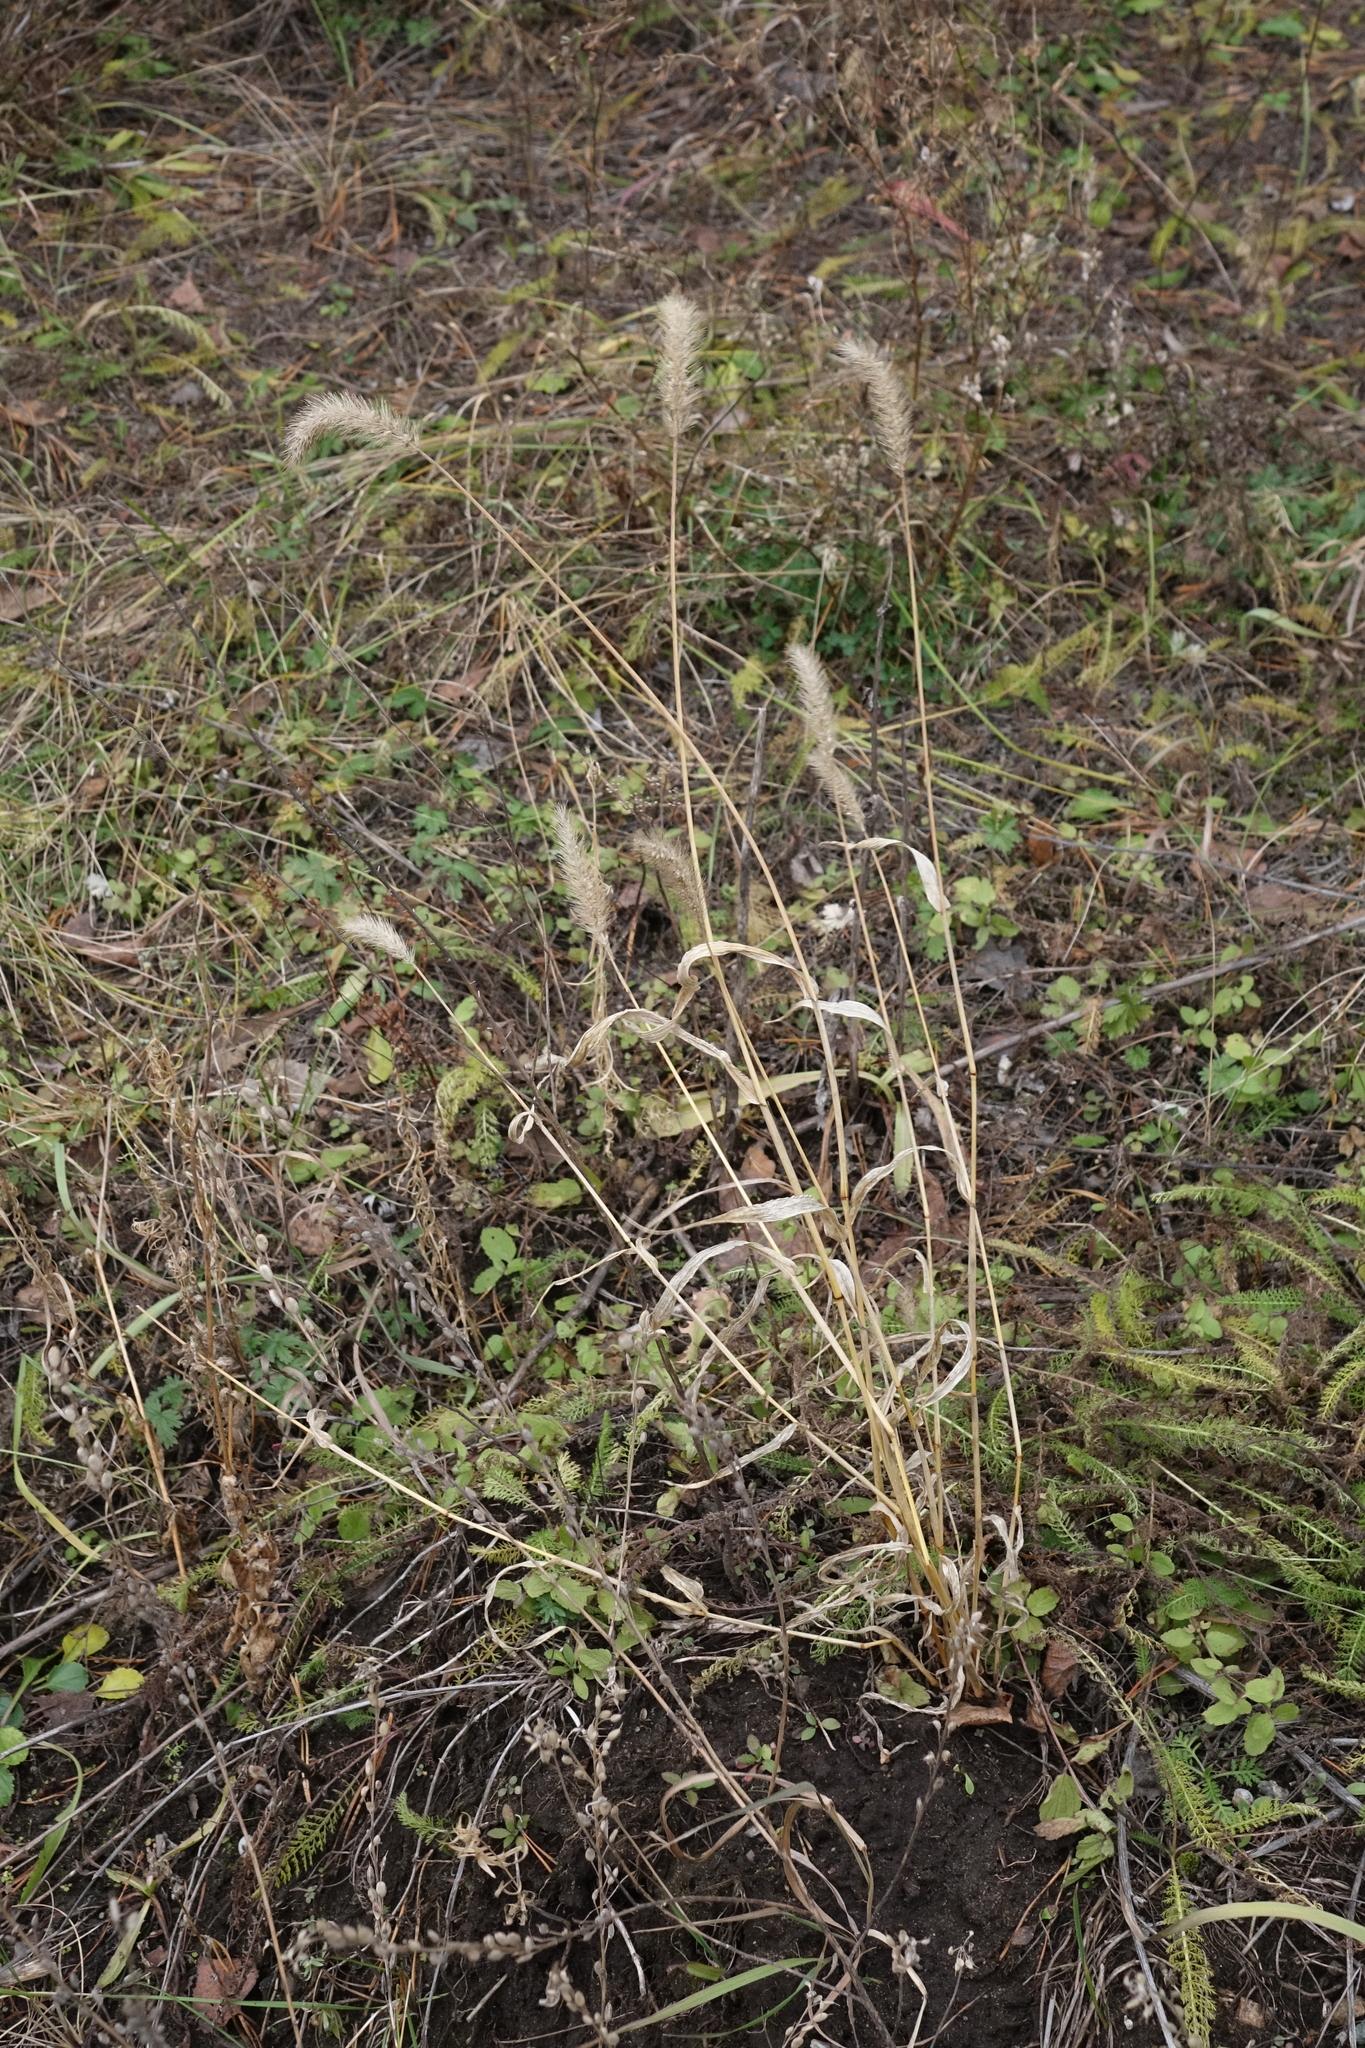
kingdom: Plantae
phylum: Tracheophyta
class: Liliopsida
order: Poales
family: Poaceae
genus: Setaria
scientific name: Setaria viridis
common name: Green bristlegrass
